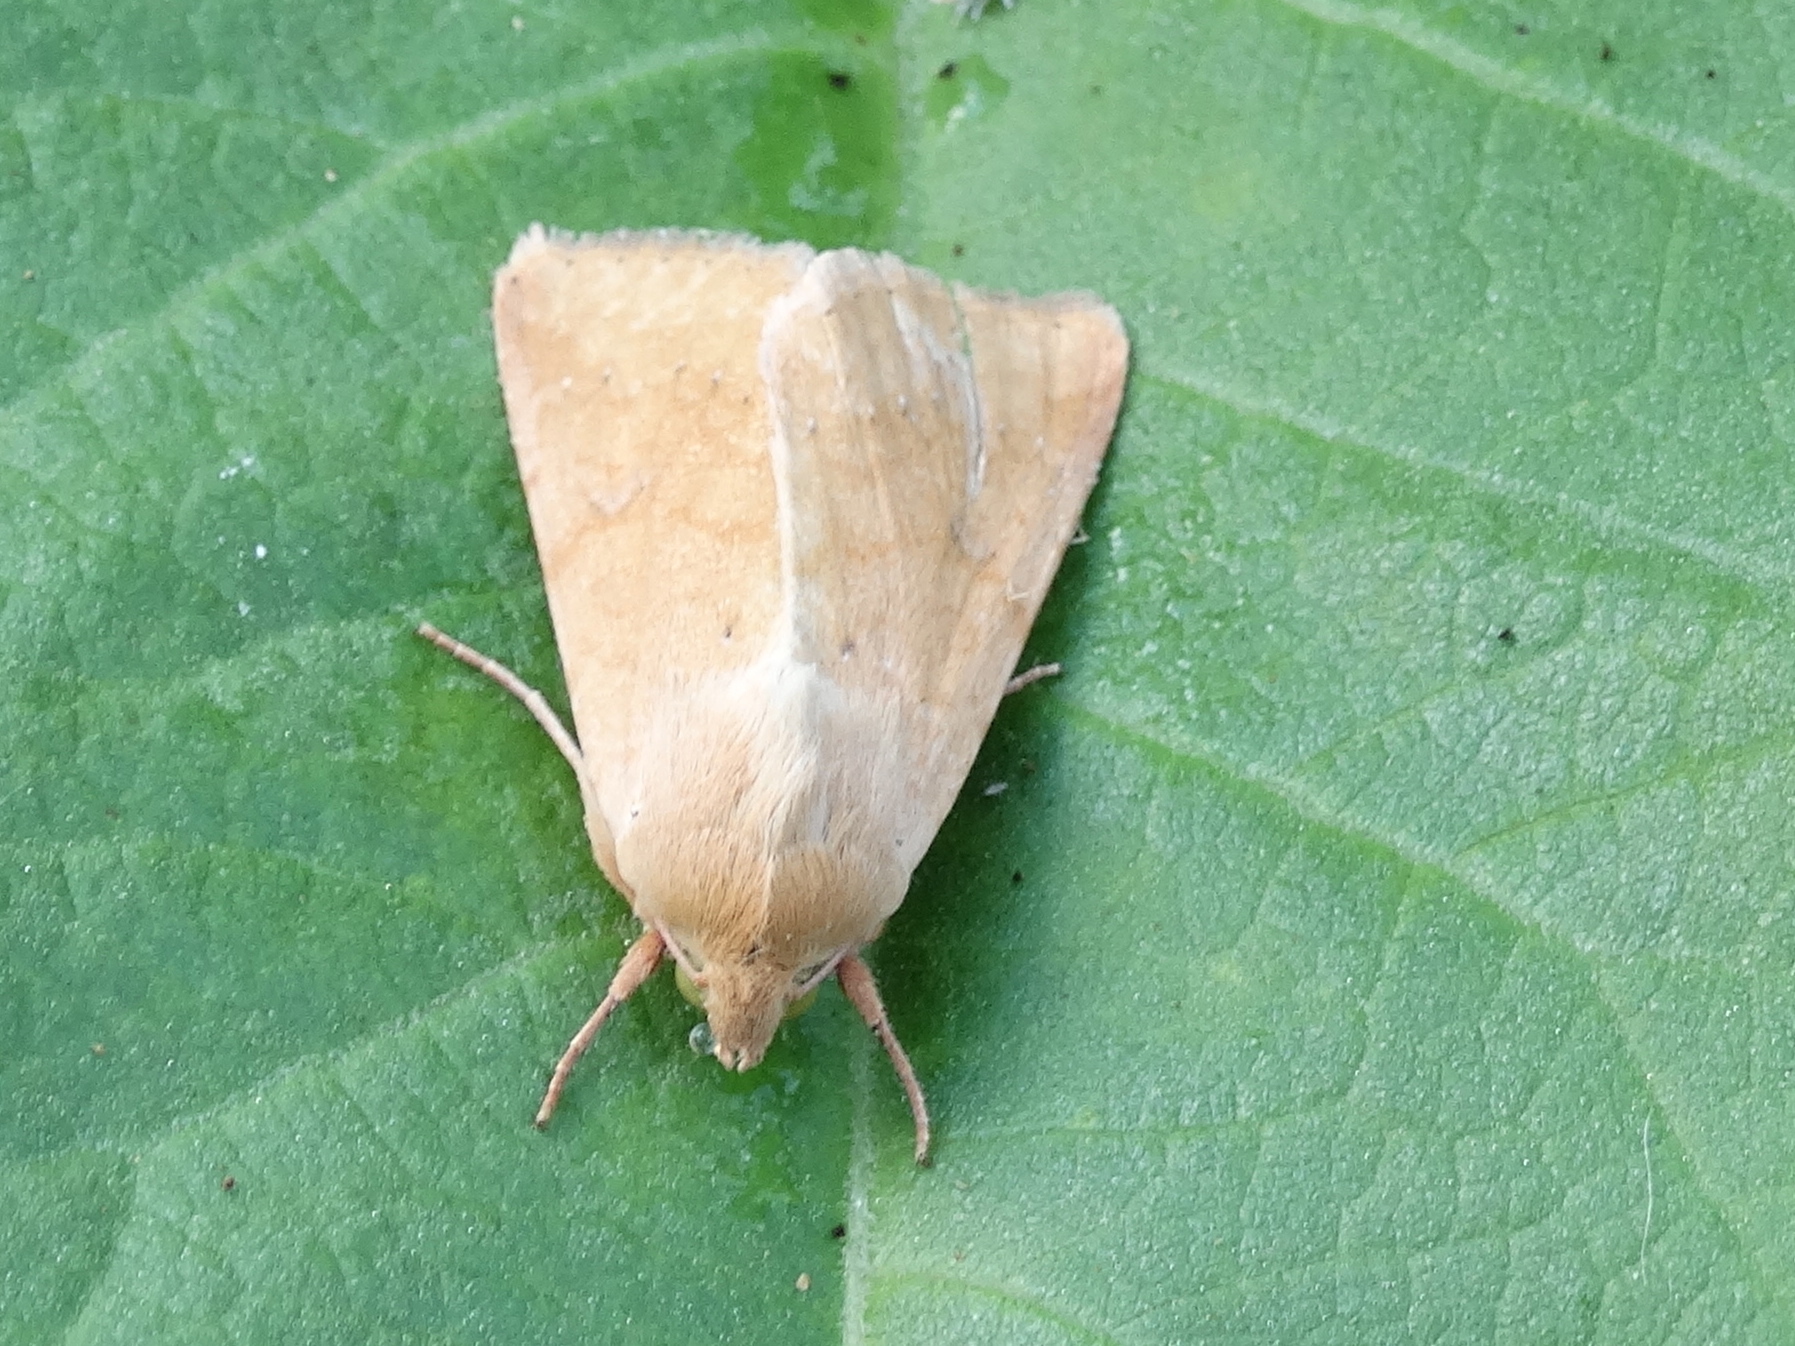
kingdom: Animalia
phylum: Arthropoda
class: Insecta
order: Lepidoptera
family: Noctuidae
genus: Helicoverpa
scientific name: Helicoverpa
